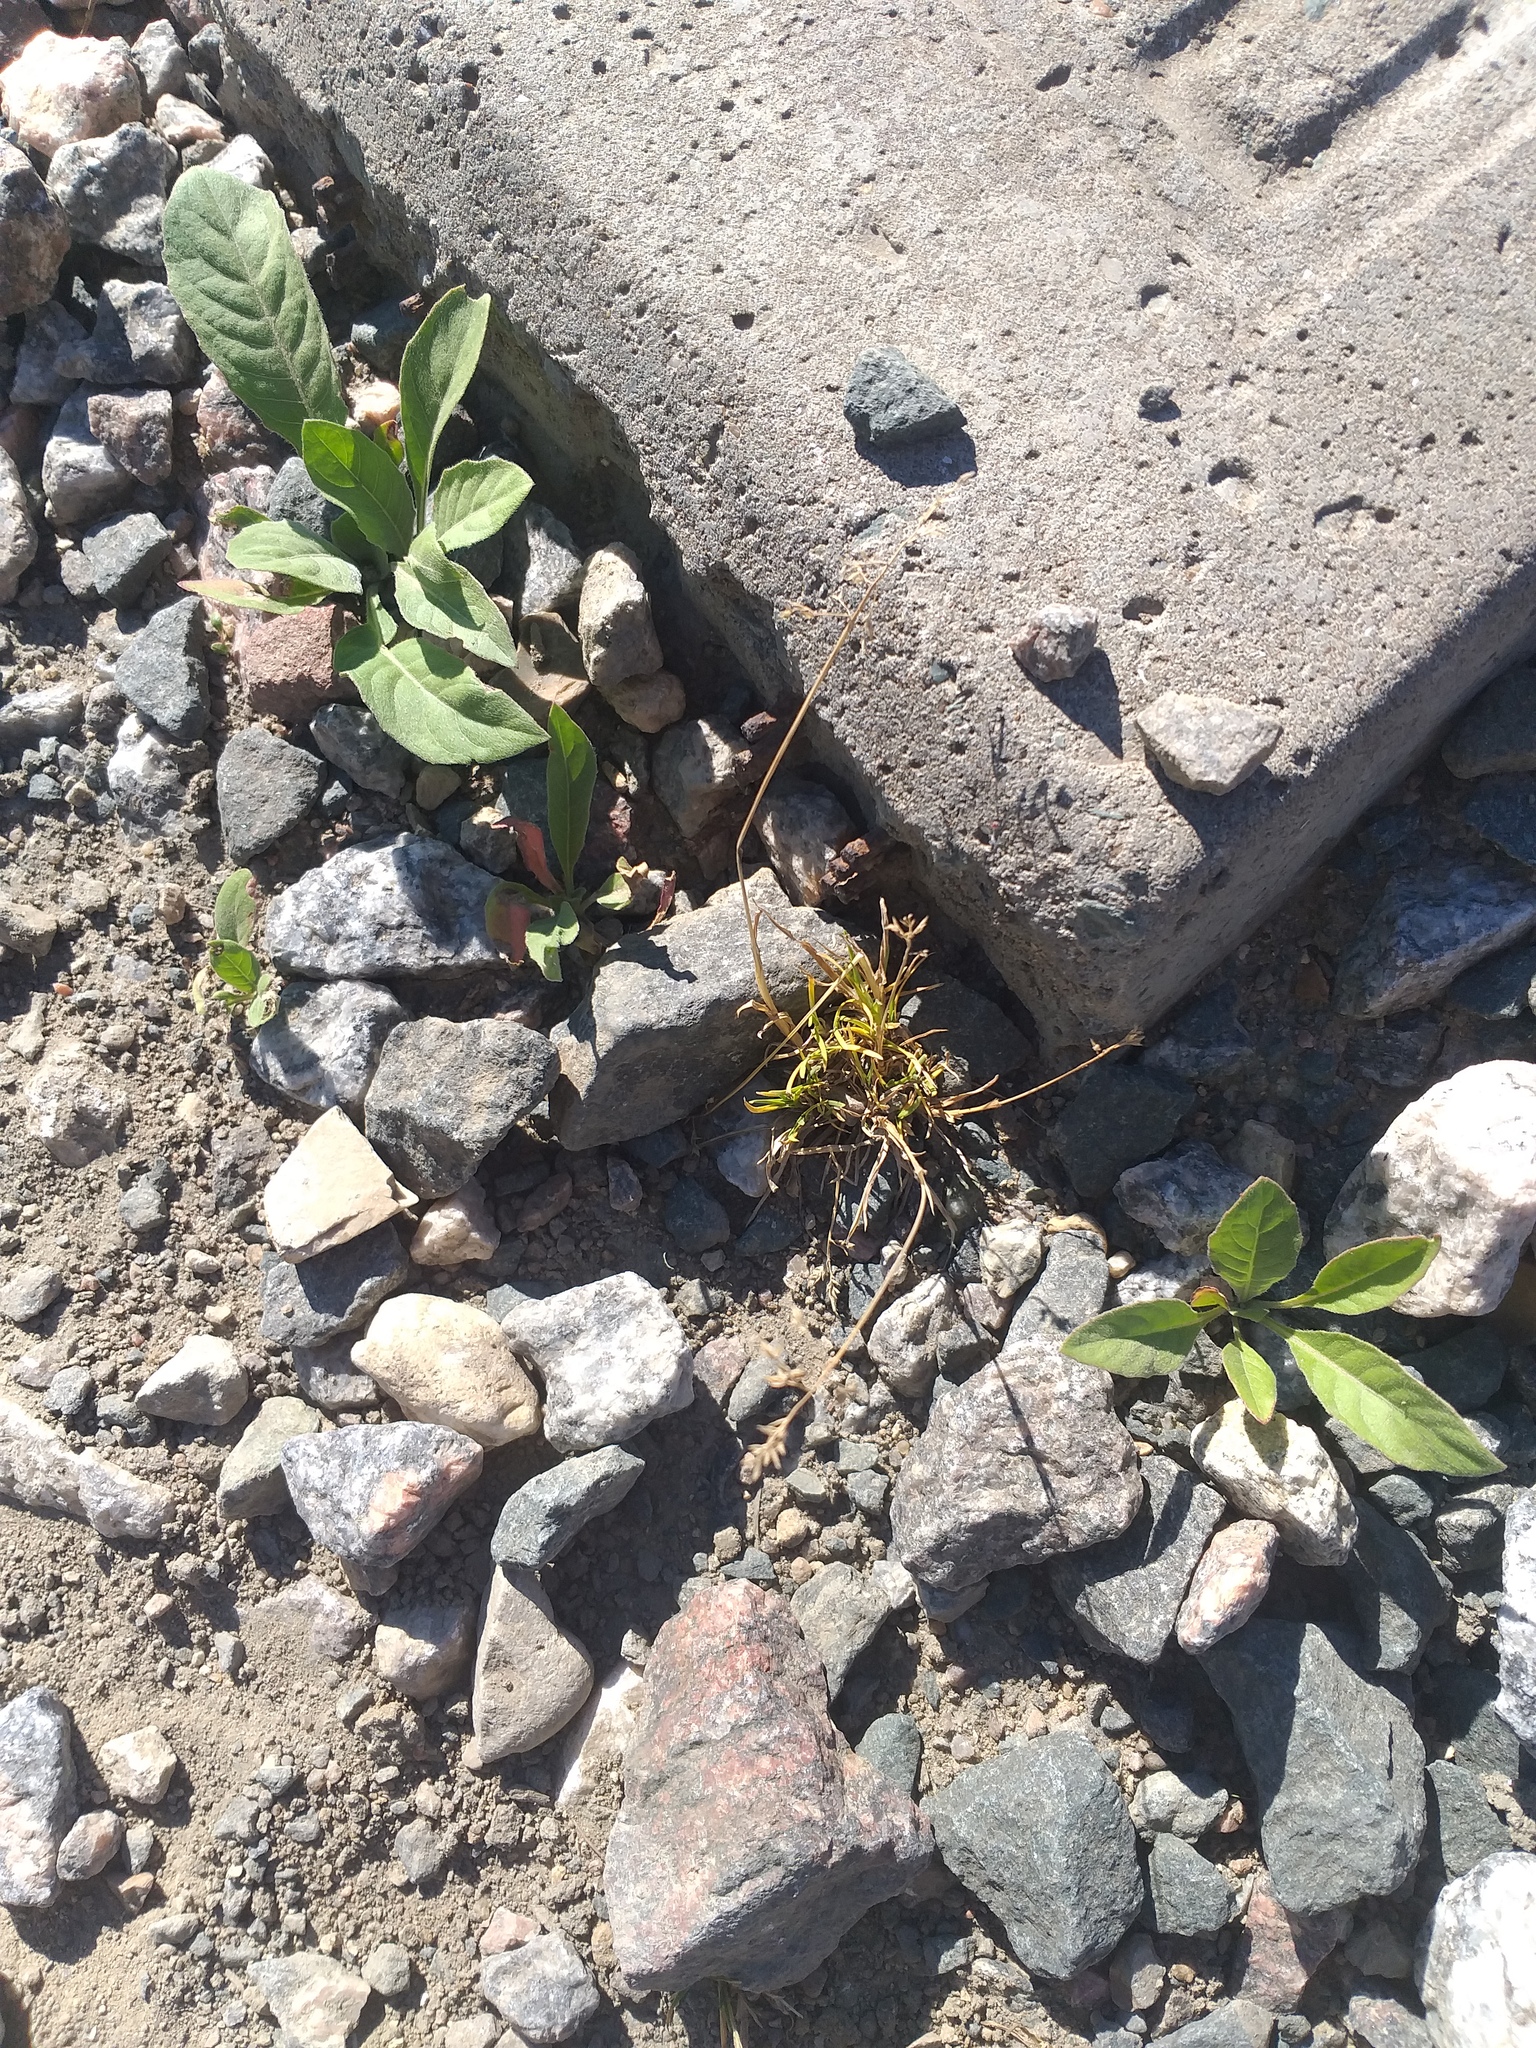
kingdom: Plantae
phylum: Tracheophyta
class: Liliopsida
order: Poales
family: Poaceae
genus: Poa
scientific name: Poa annua
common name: Annual bluegrass
